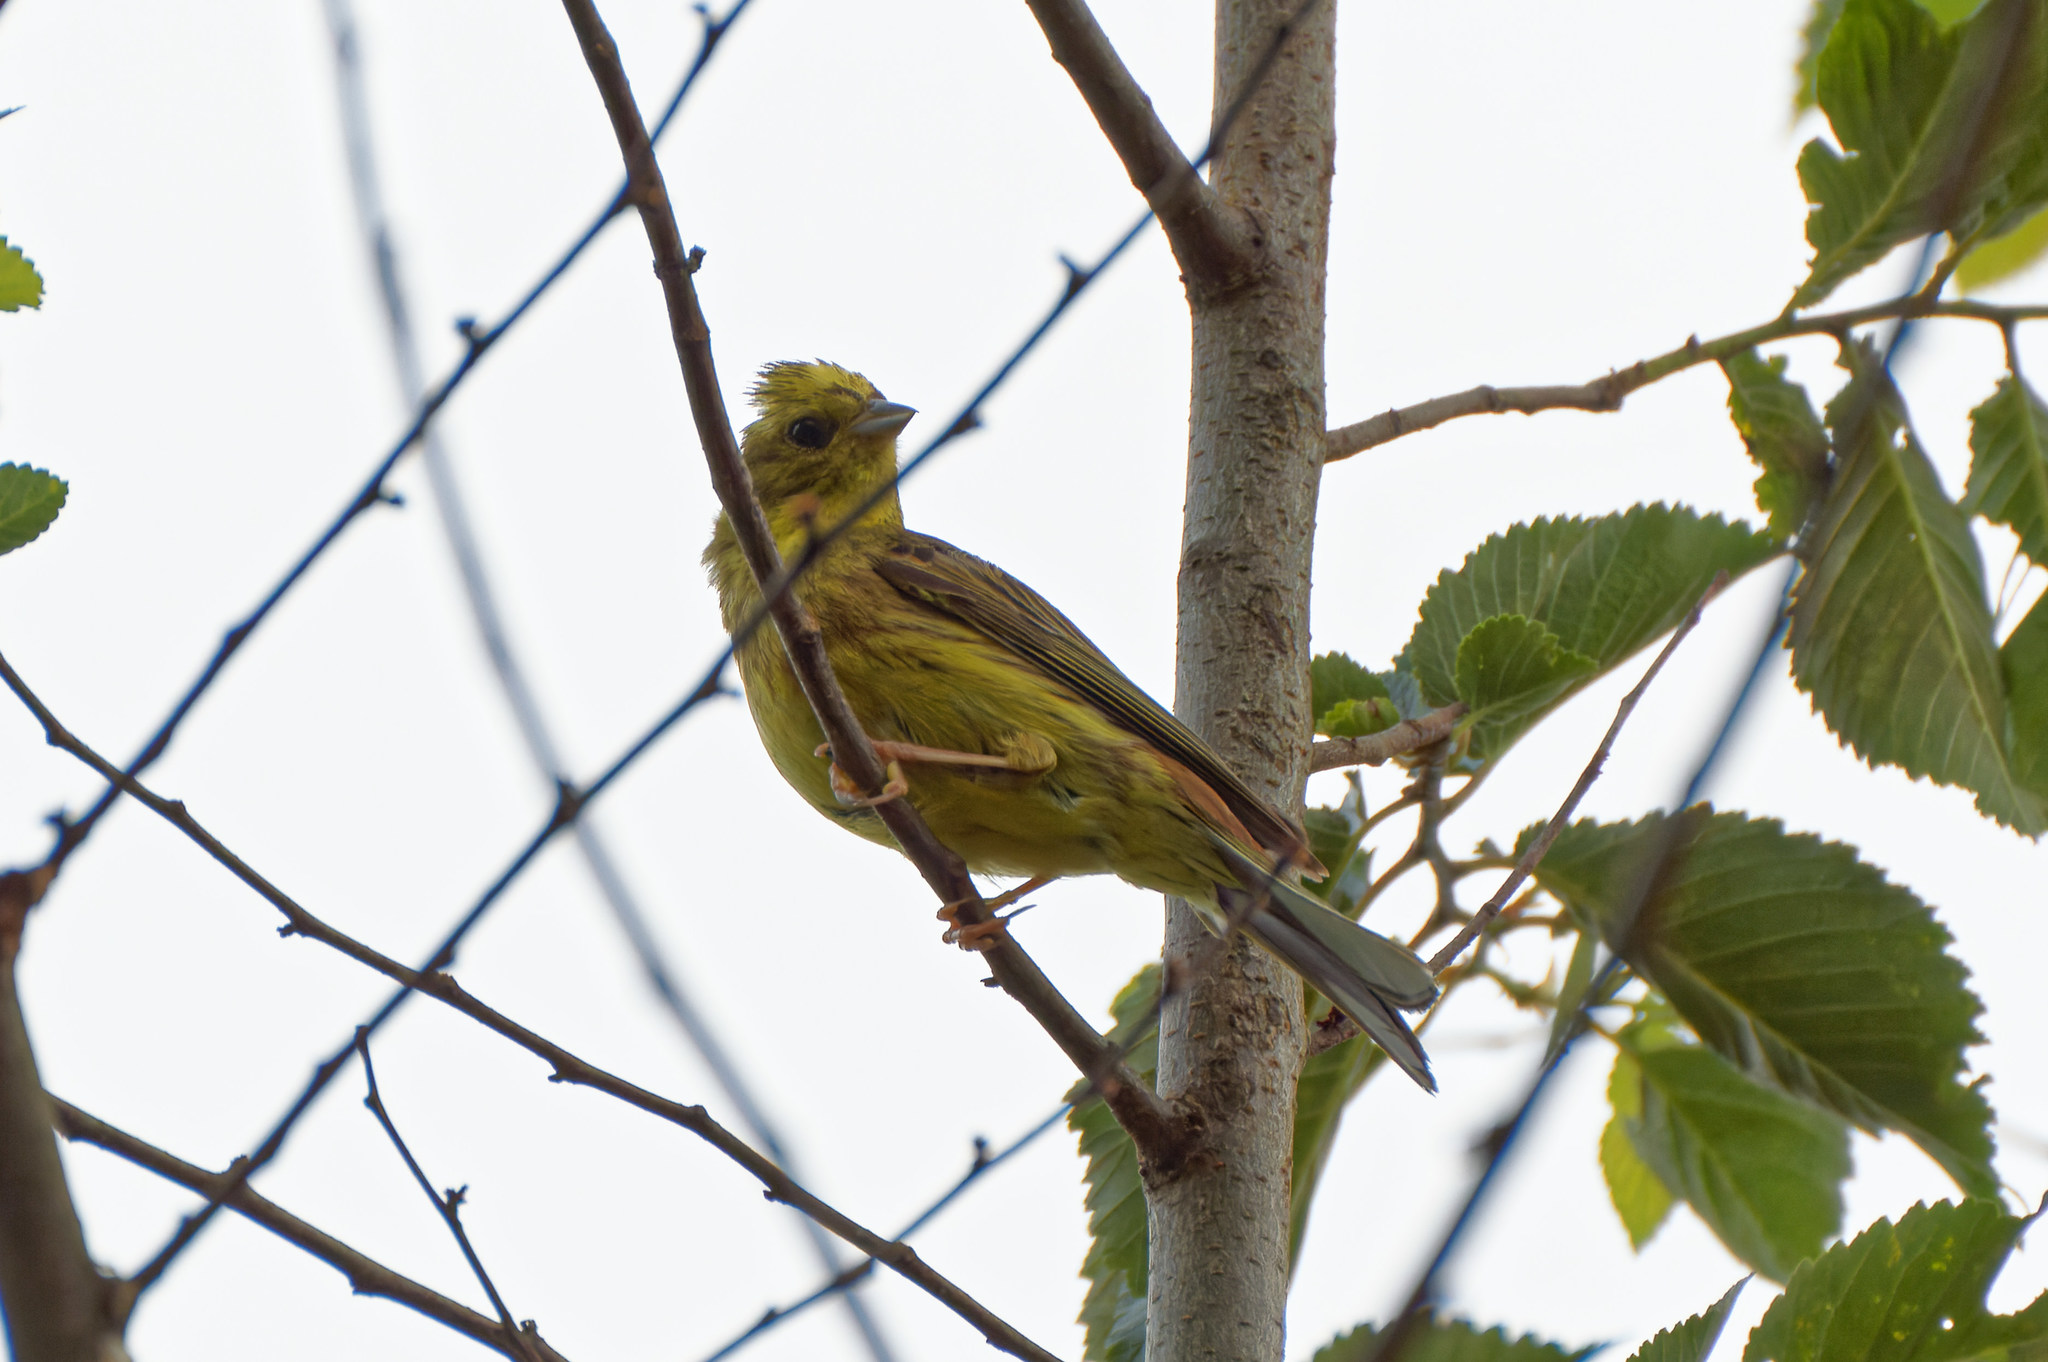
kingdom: Animalia
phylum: Chordata
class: Aves
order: Passeriformes
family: Emberizidae
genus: Emberiza
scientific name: Emberiza citrinella
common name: Yellowhammer
